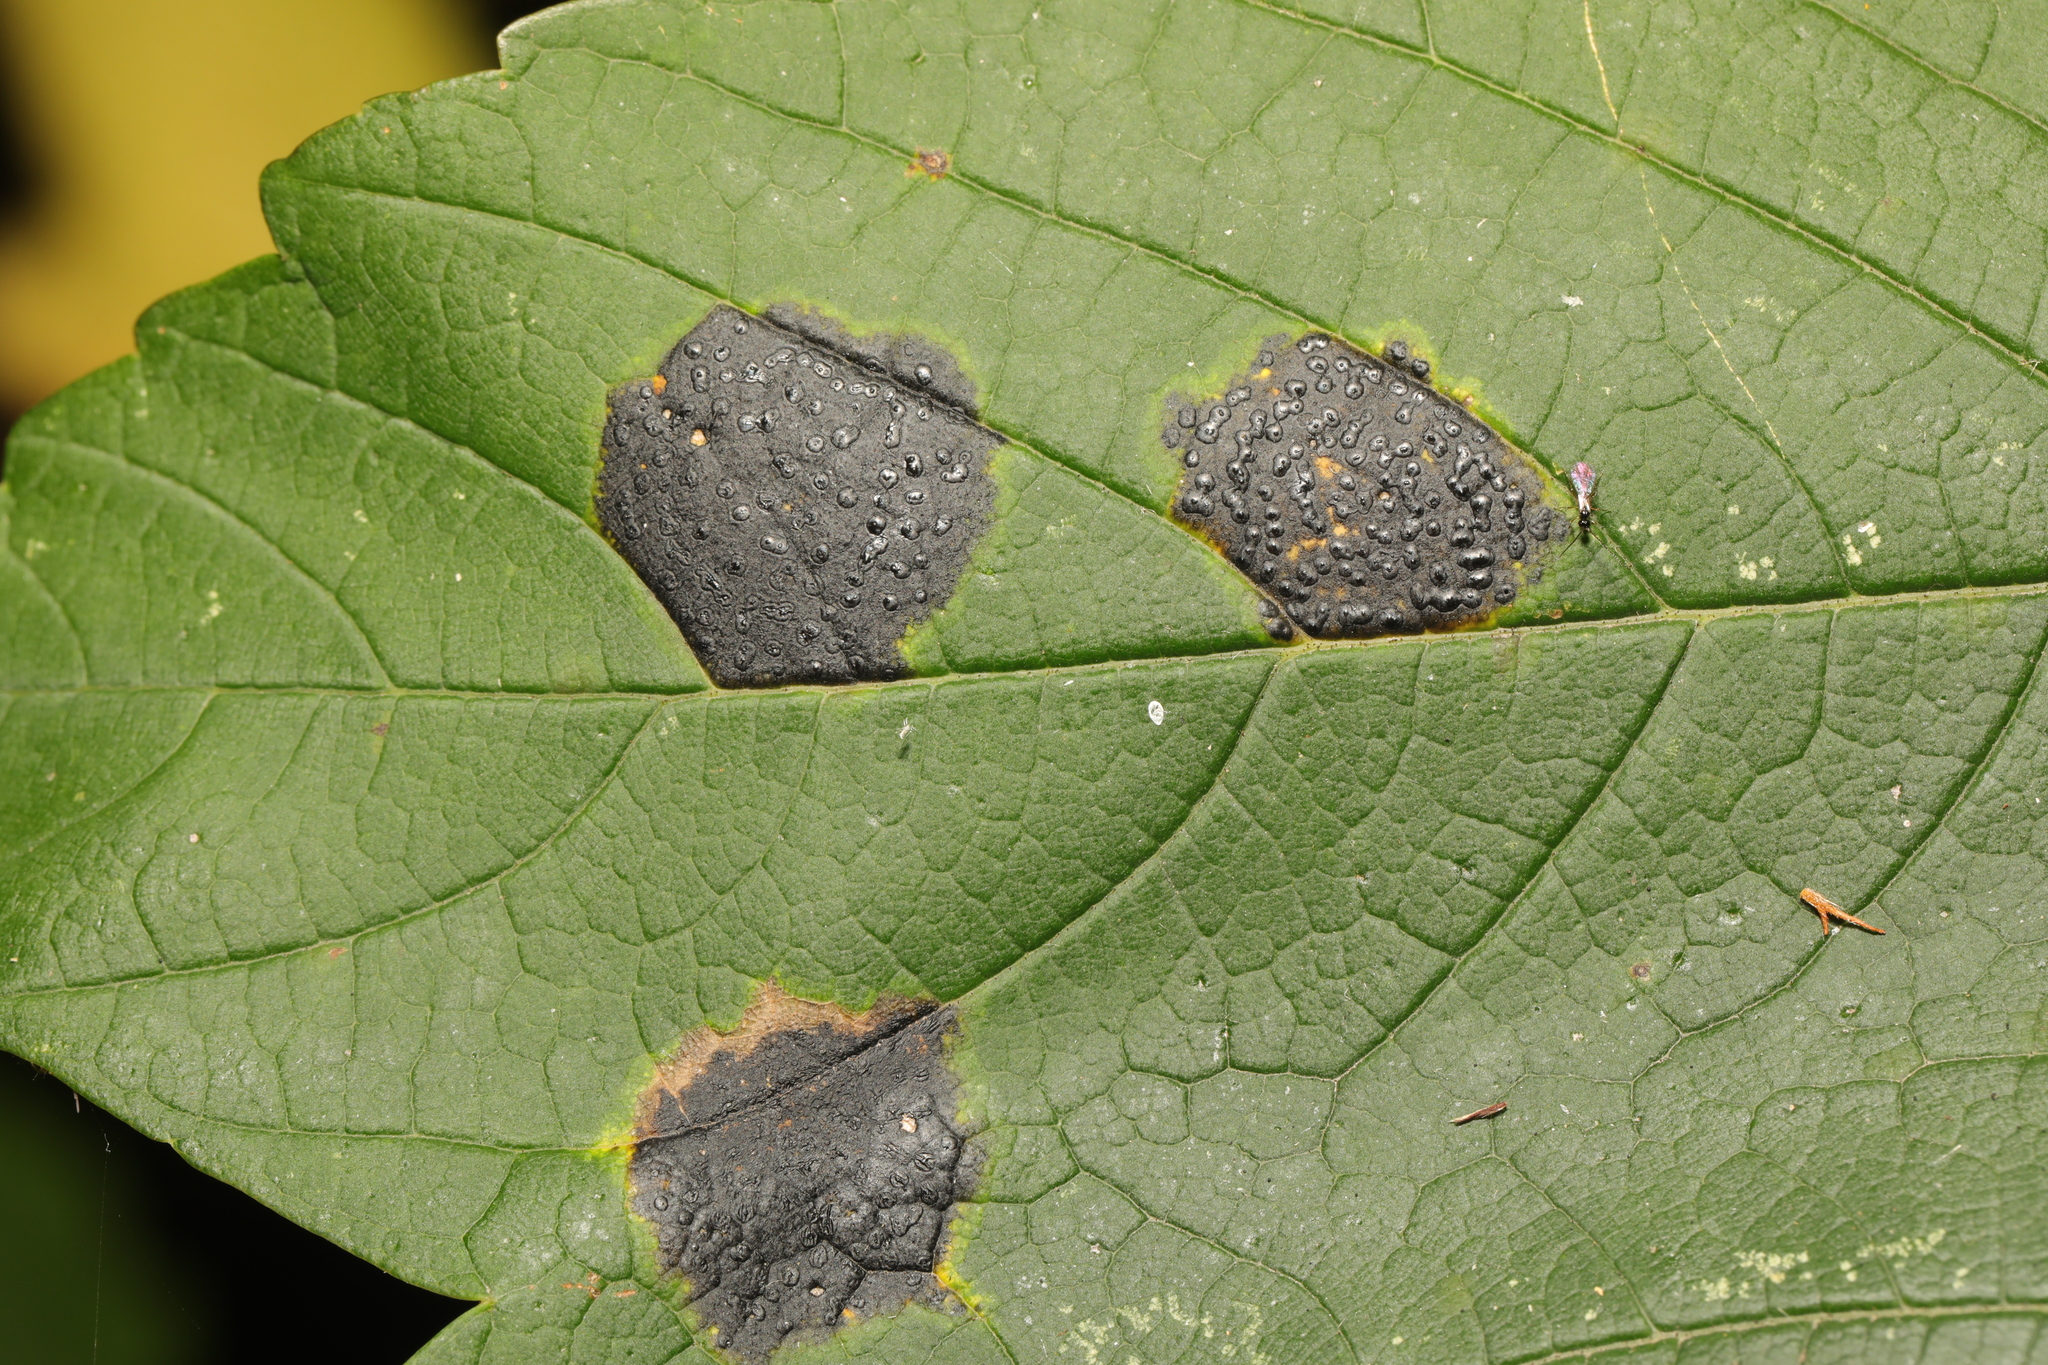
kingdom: Fungi
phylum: Ascomycota
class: Leotiomycetes
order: Rhytismatales
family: Rhytismataceae
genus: Rhytisma
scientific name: Rhytisma acerinum
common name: European tar spot
